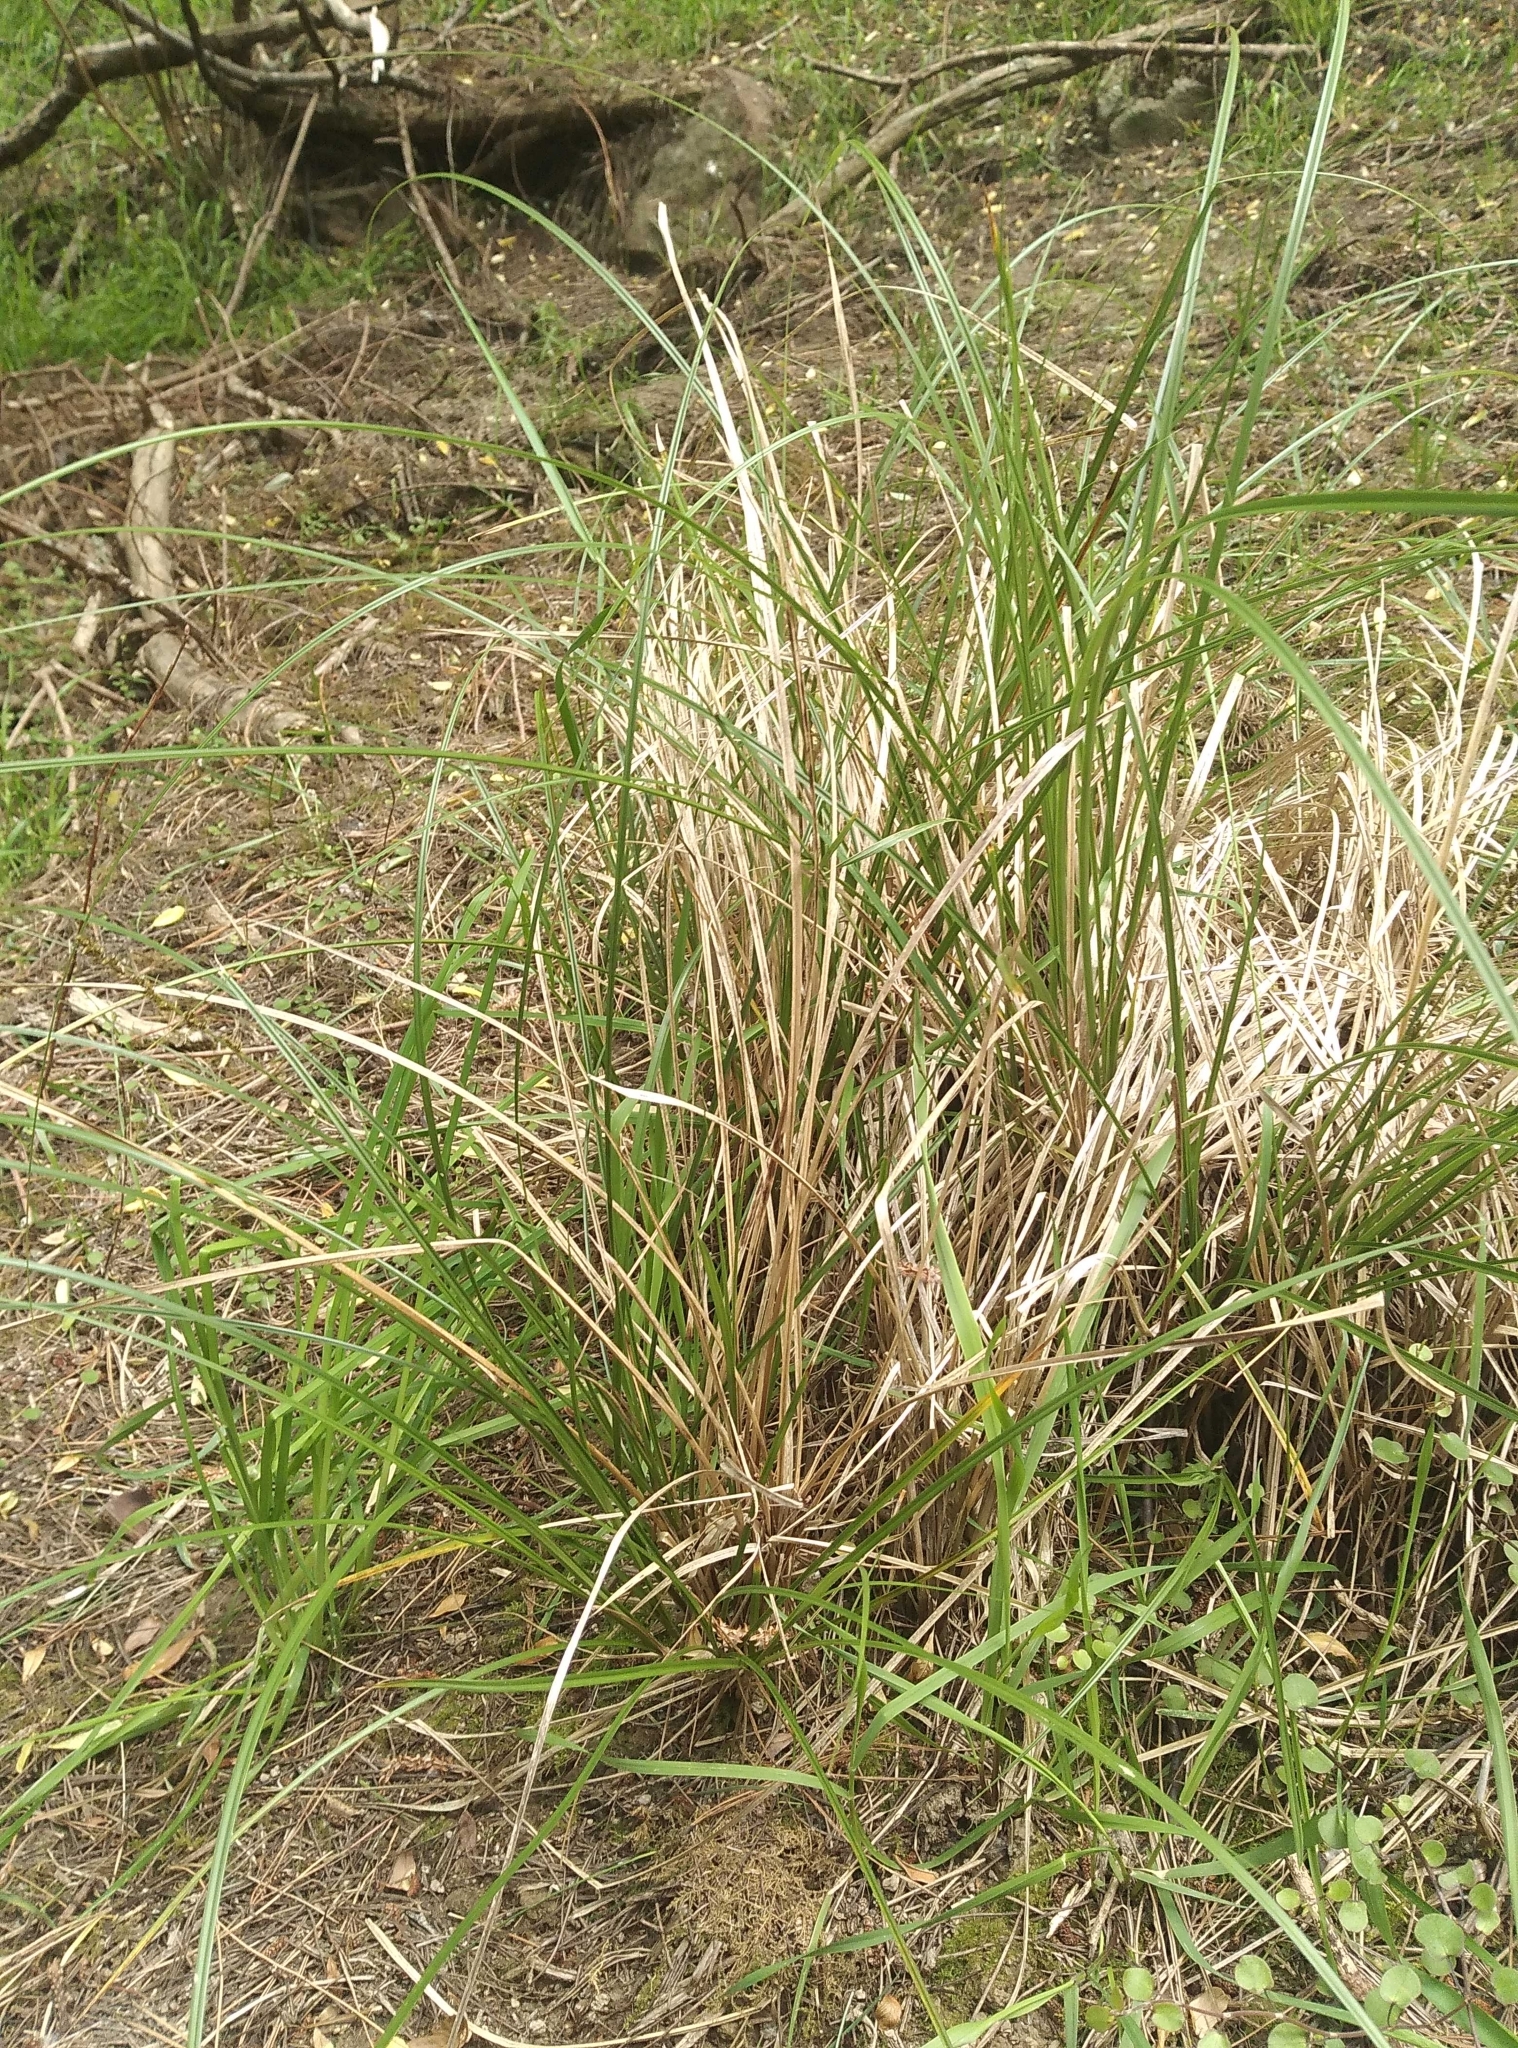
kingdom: Plantae
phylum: Tracheophyta
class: Liliopsida
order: Poales
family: Cyperaceae
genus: Carex
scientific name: Carex virgata
